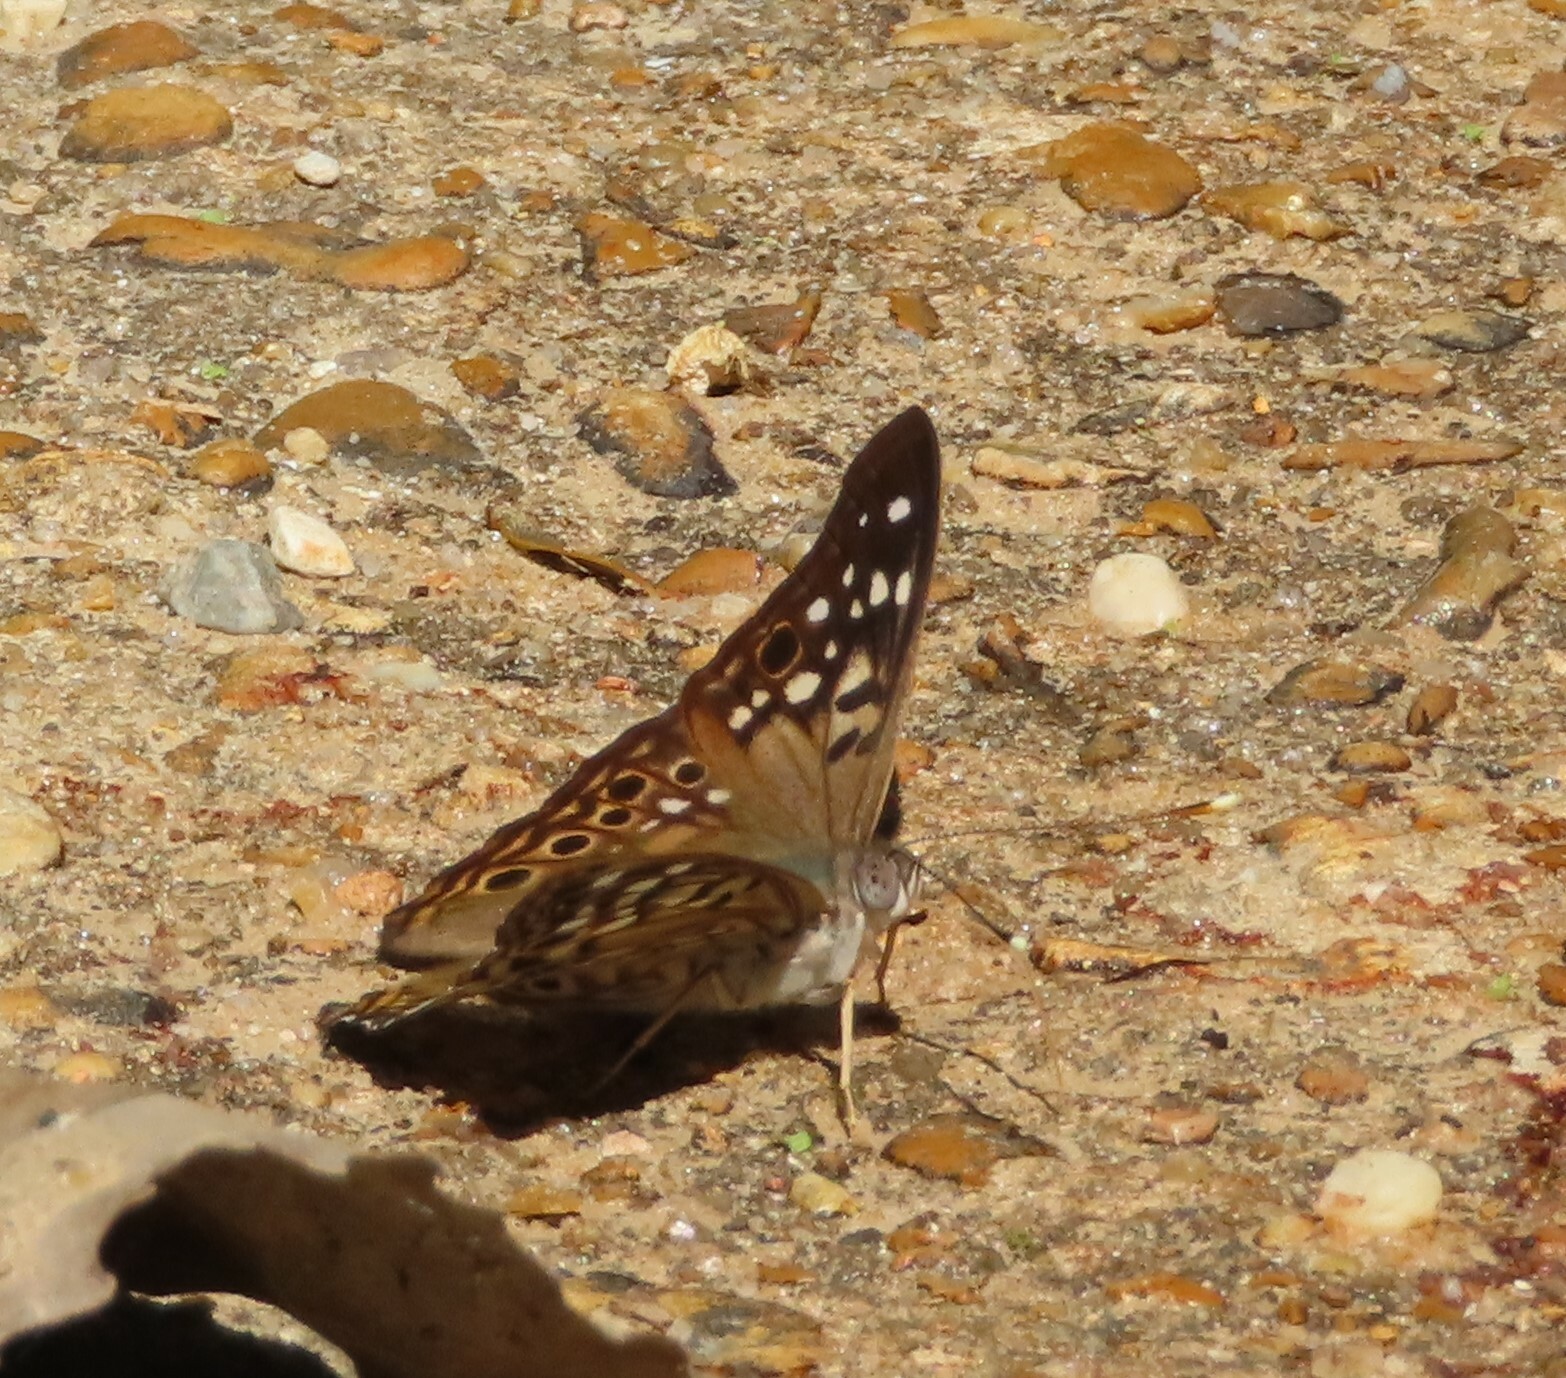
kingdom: Animalia
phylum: Arthropoda
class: Insecta
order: Lepidoptera
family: Nymphalidae
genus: Asterocampa
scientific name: Asterocampa celtis
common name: Hackberry emperor
